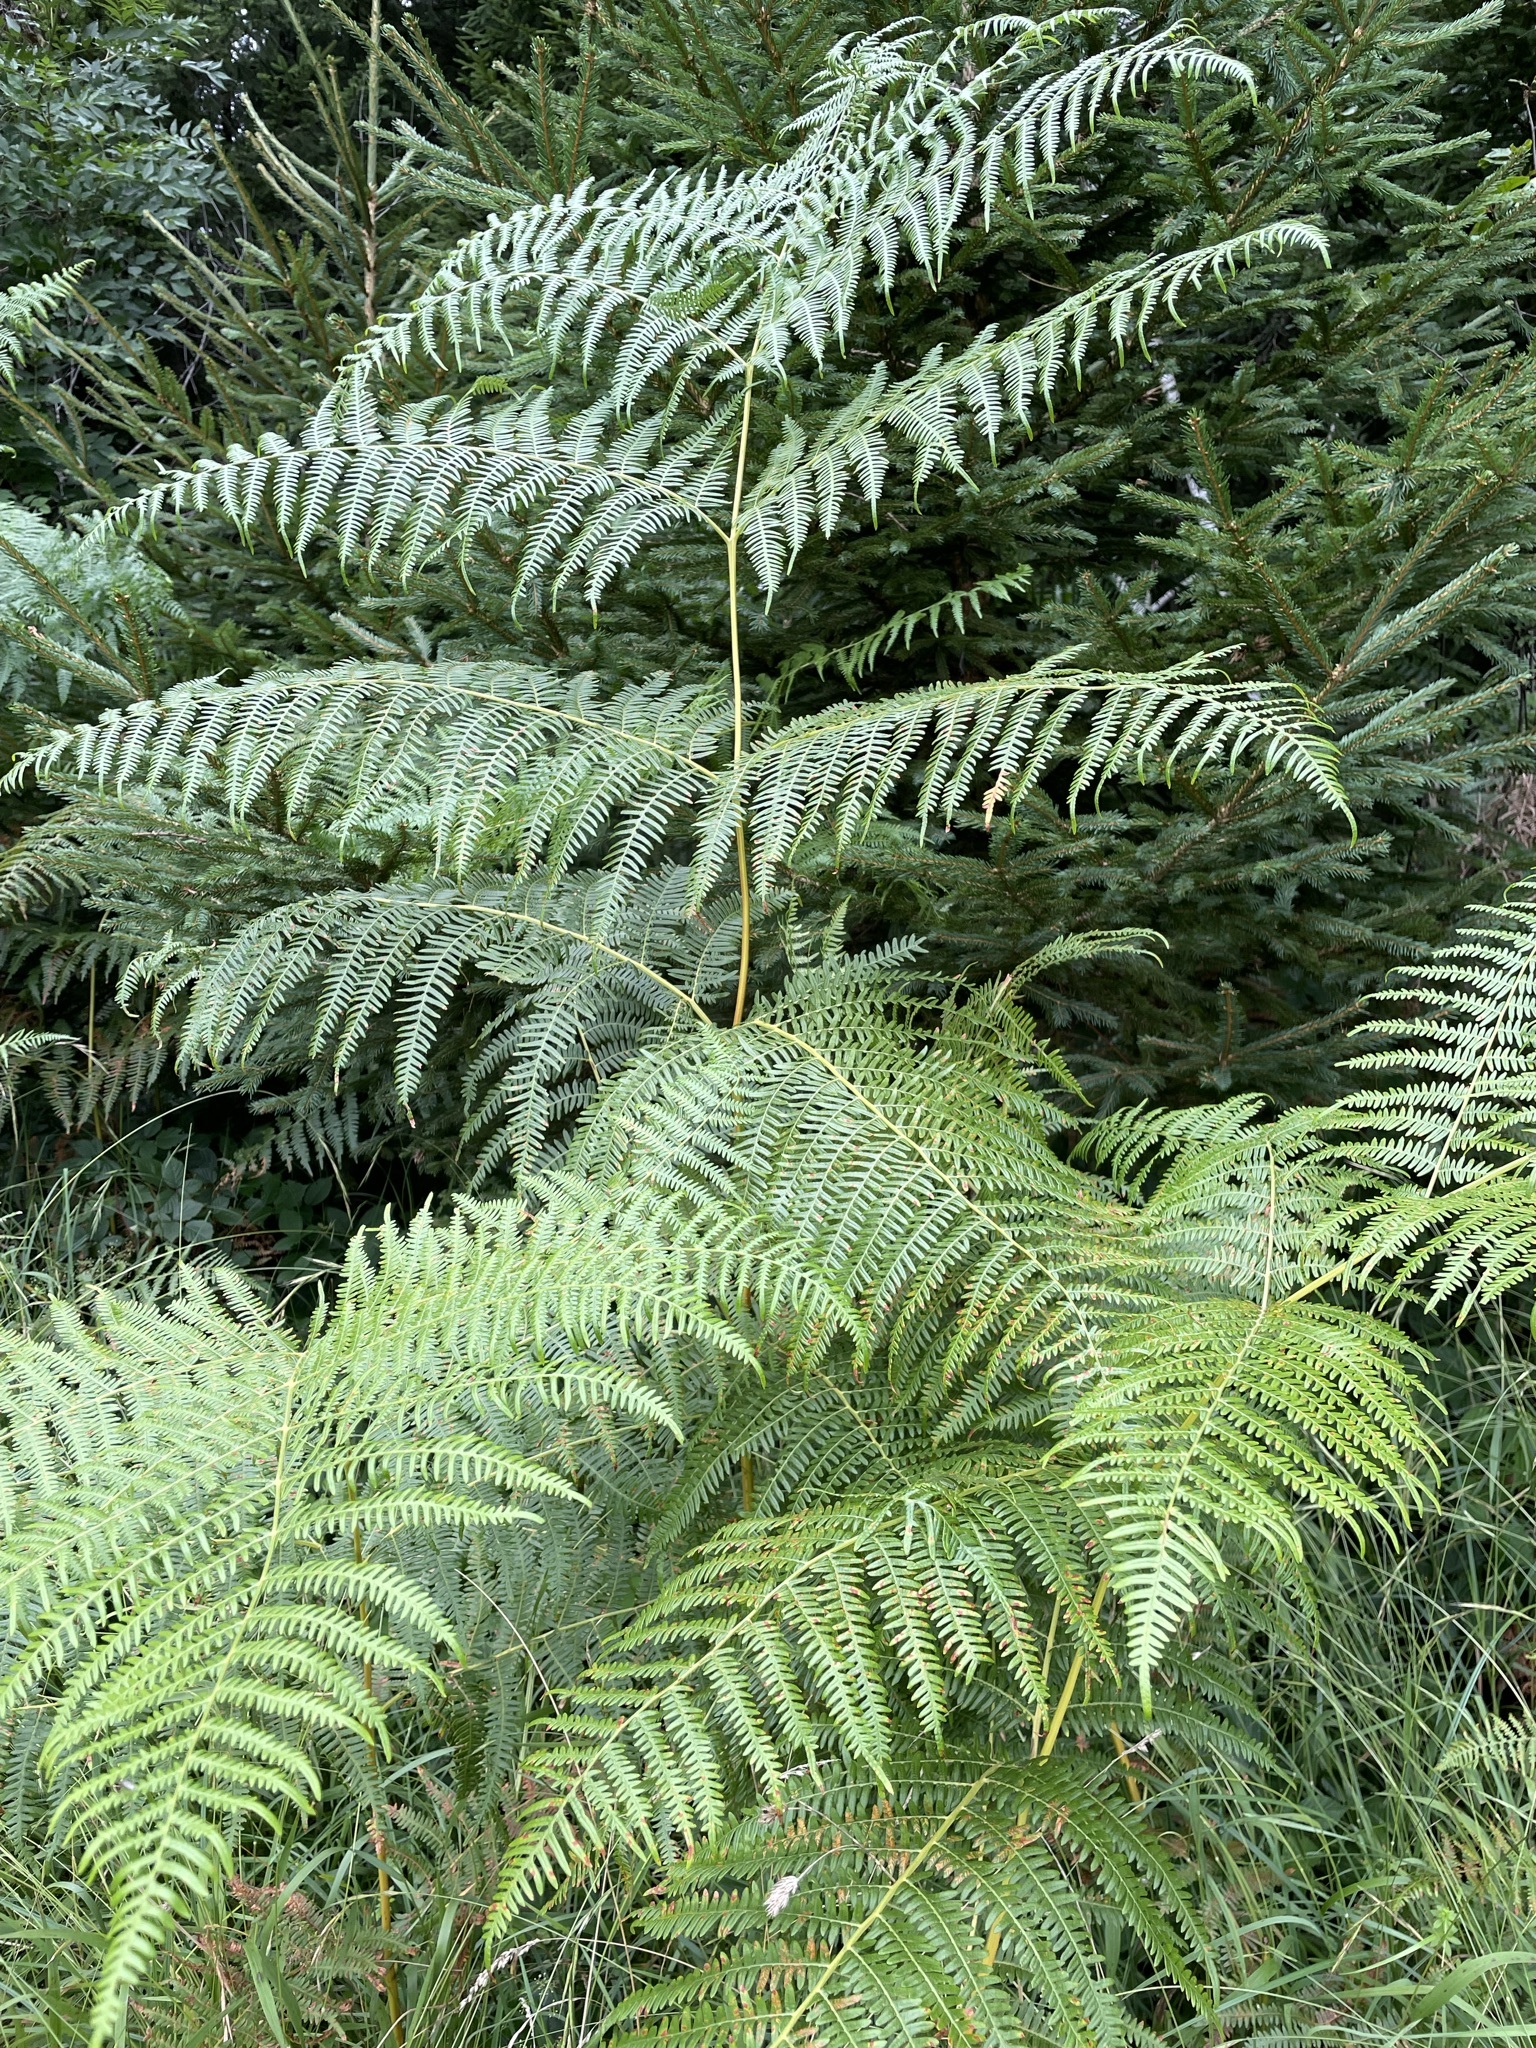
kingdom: Plantae
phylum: Tracheophyta
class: Polypodiopsida
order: Polypodiales
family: Dennstaedtiaceae
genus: Pteridium
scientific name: Pteridium aquilinum
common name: Bracken
